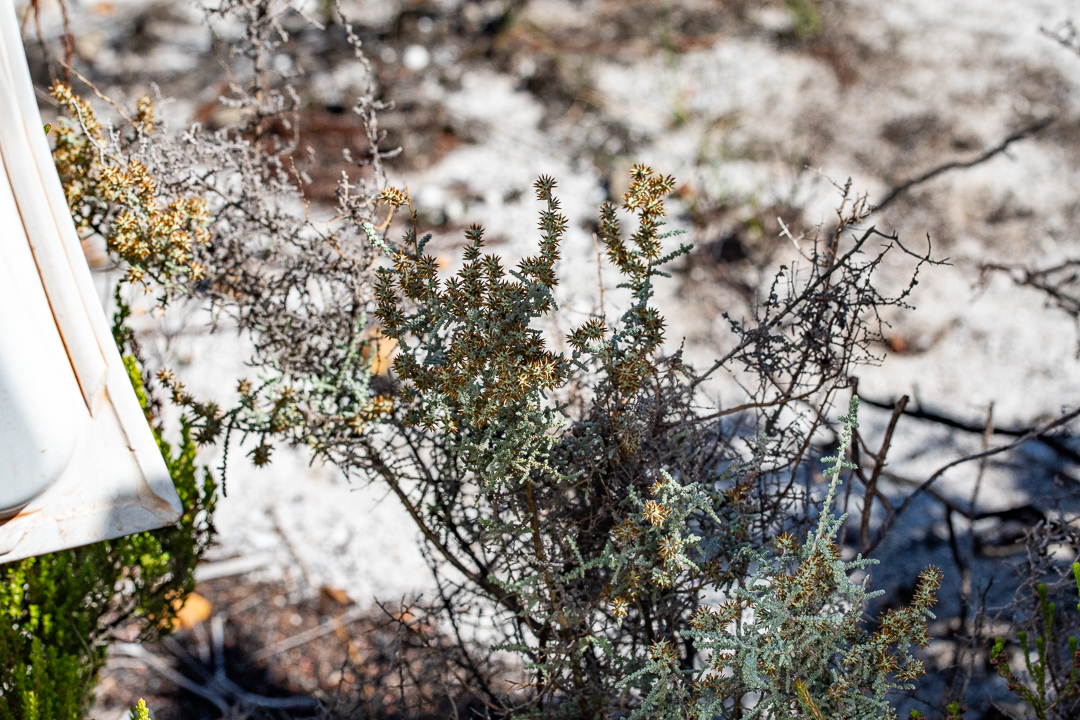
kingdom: Plantae
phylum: Tracheophyta
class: Magnoliopsida
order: Asterales
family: Asteraceae
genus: Seriphium
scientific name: Seriphium plumosum
